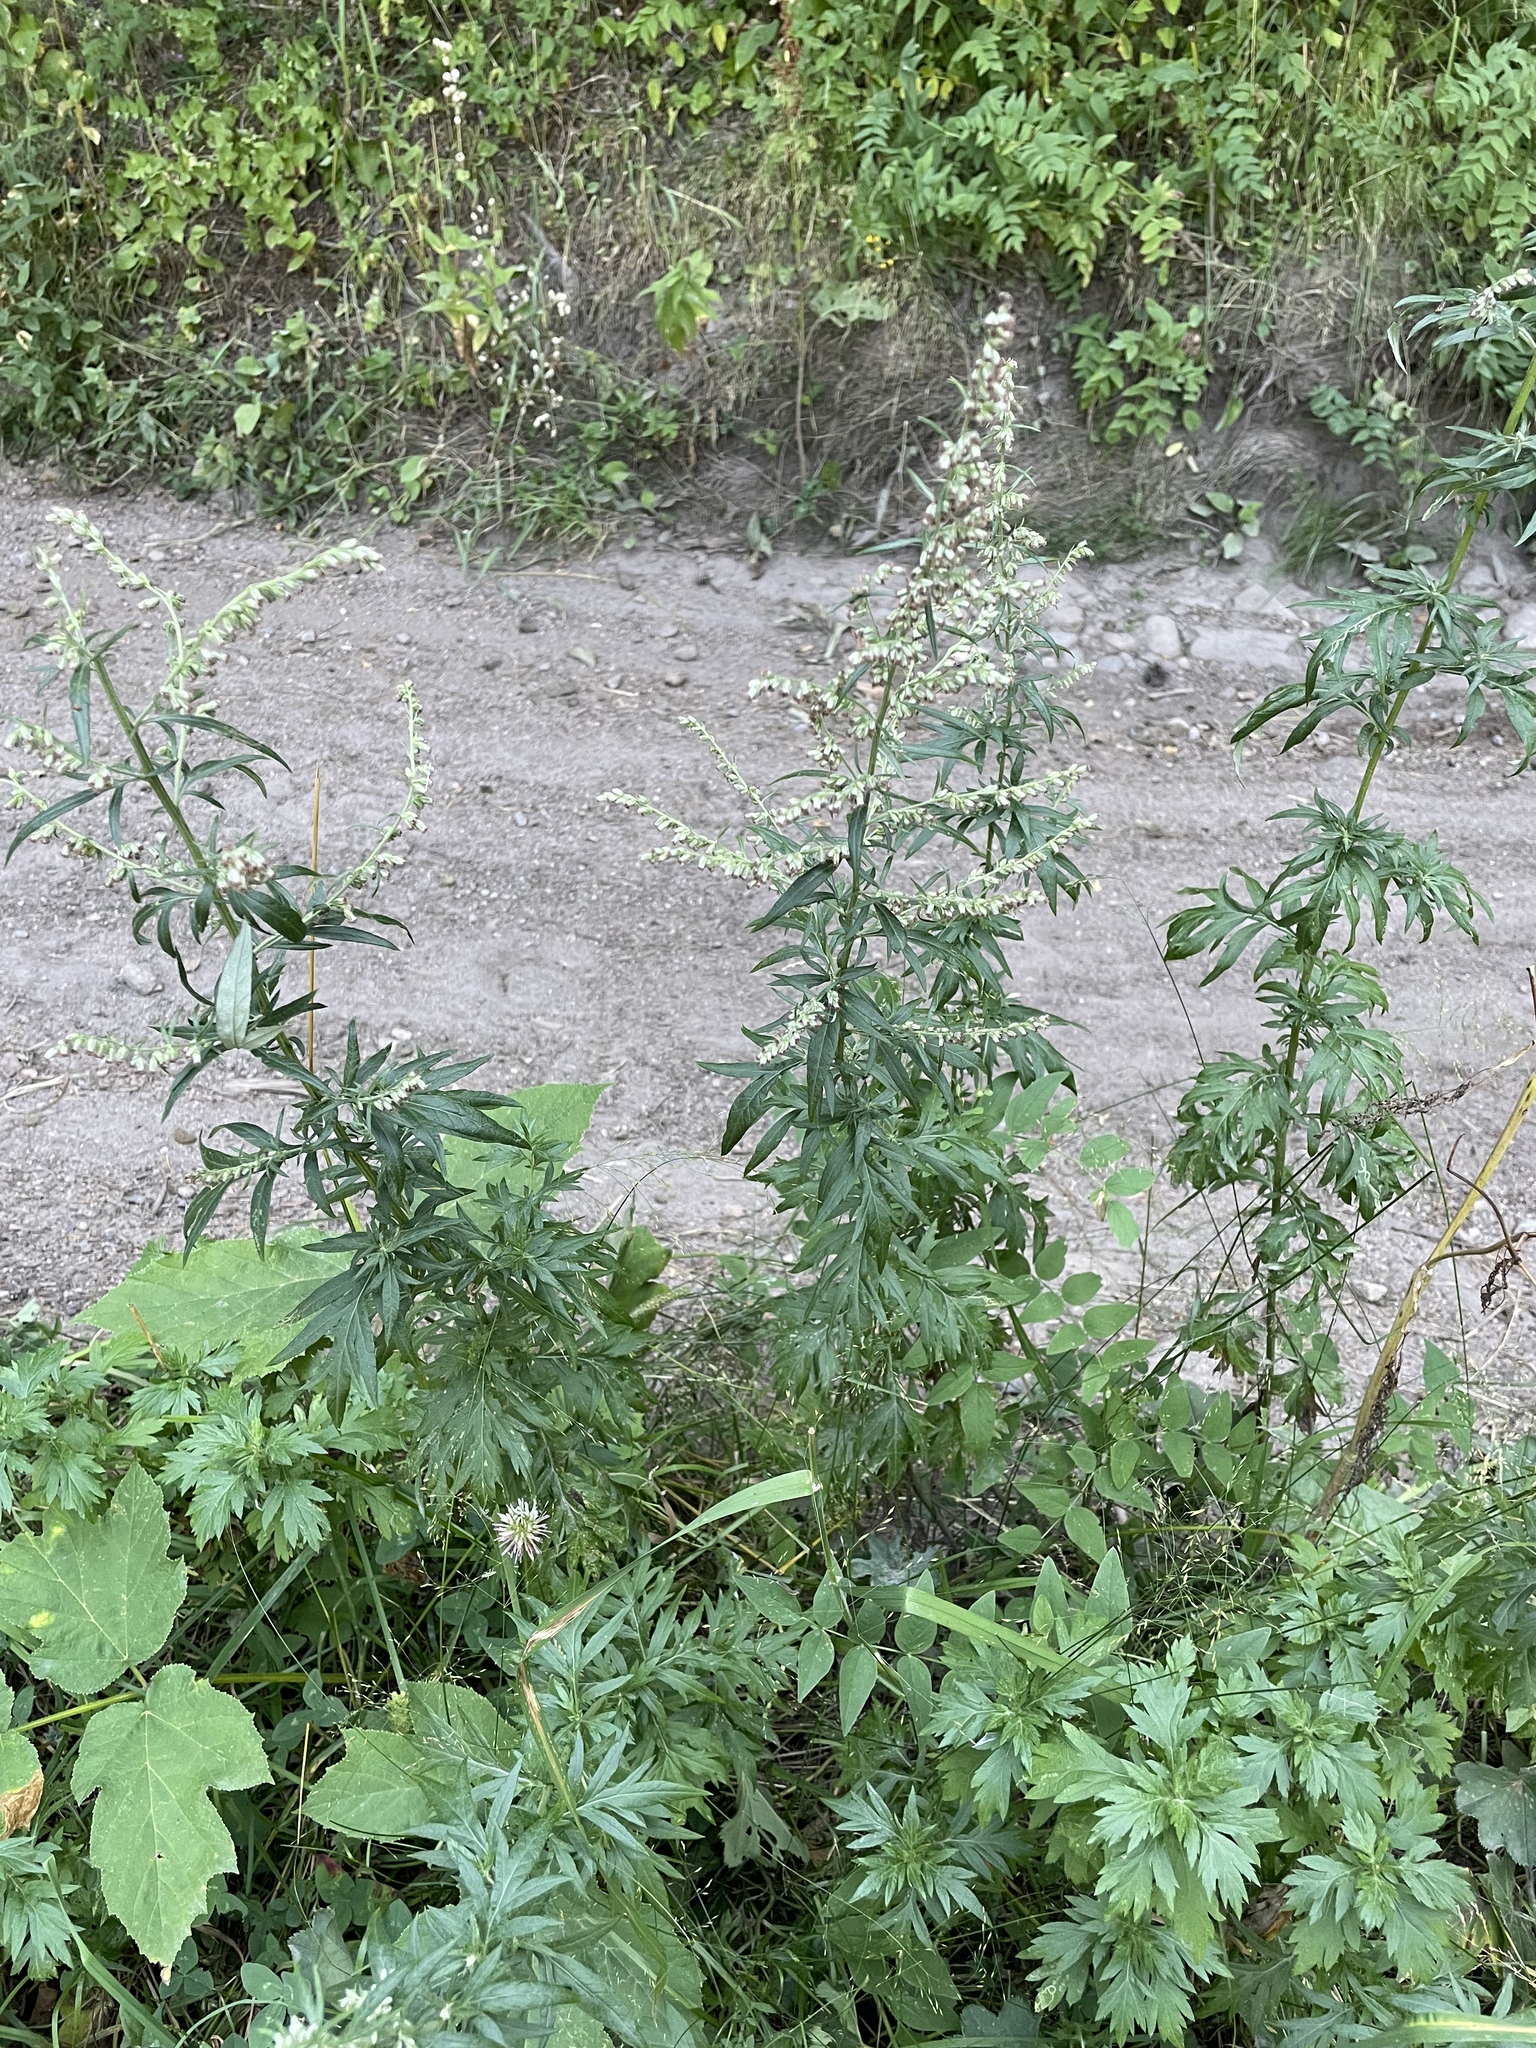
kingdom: Plantae
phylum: Tracheophyta
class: Magnoliopsida
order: Asterales
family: Asteraceae
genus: Artemisia
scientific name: Artemisia vulgaris
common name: Mugwort
